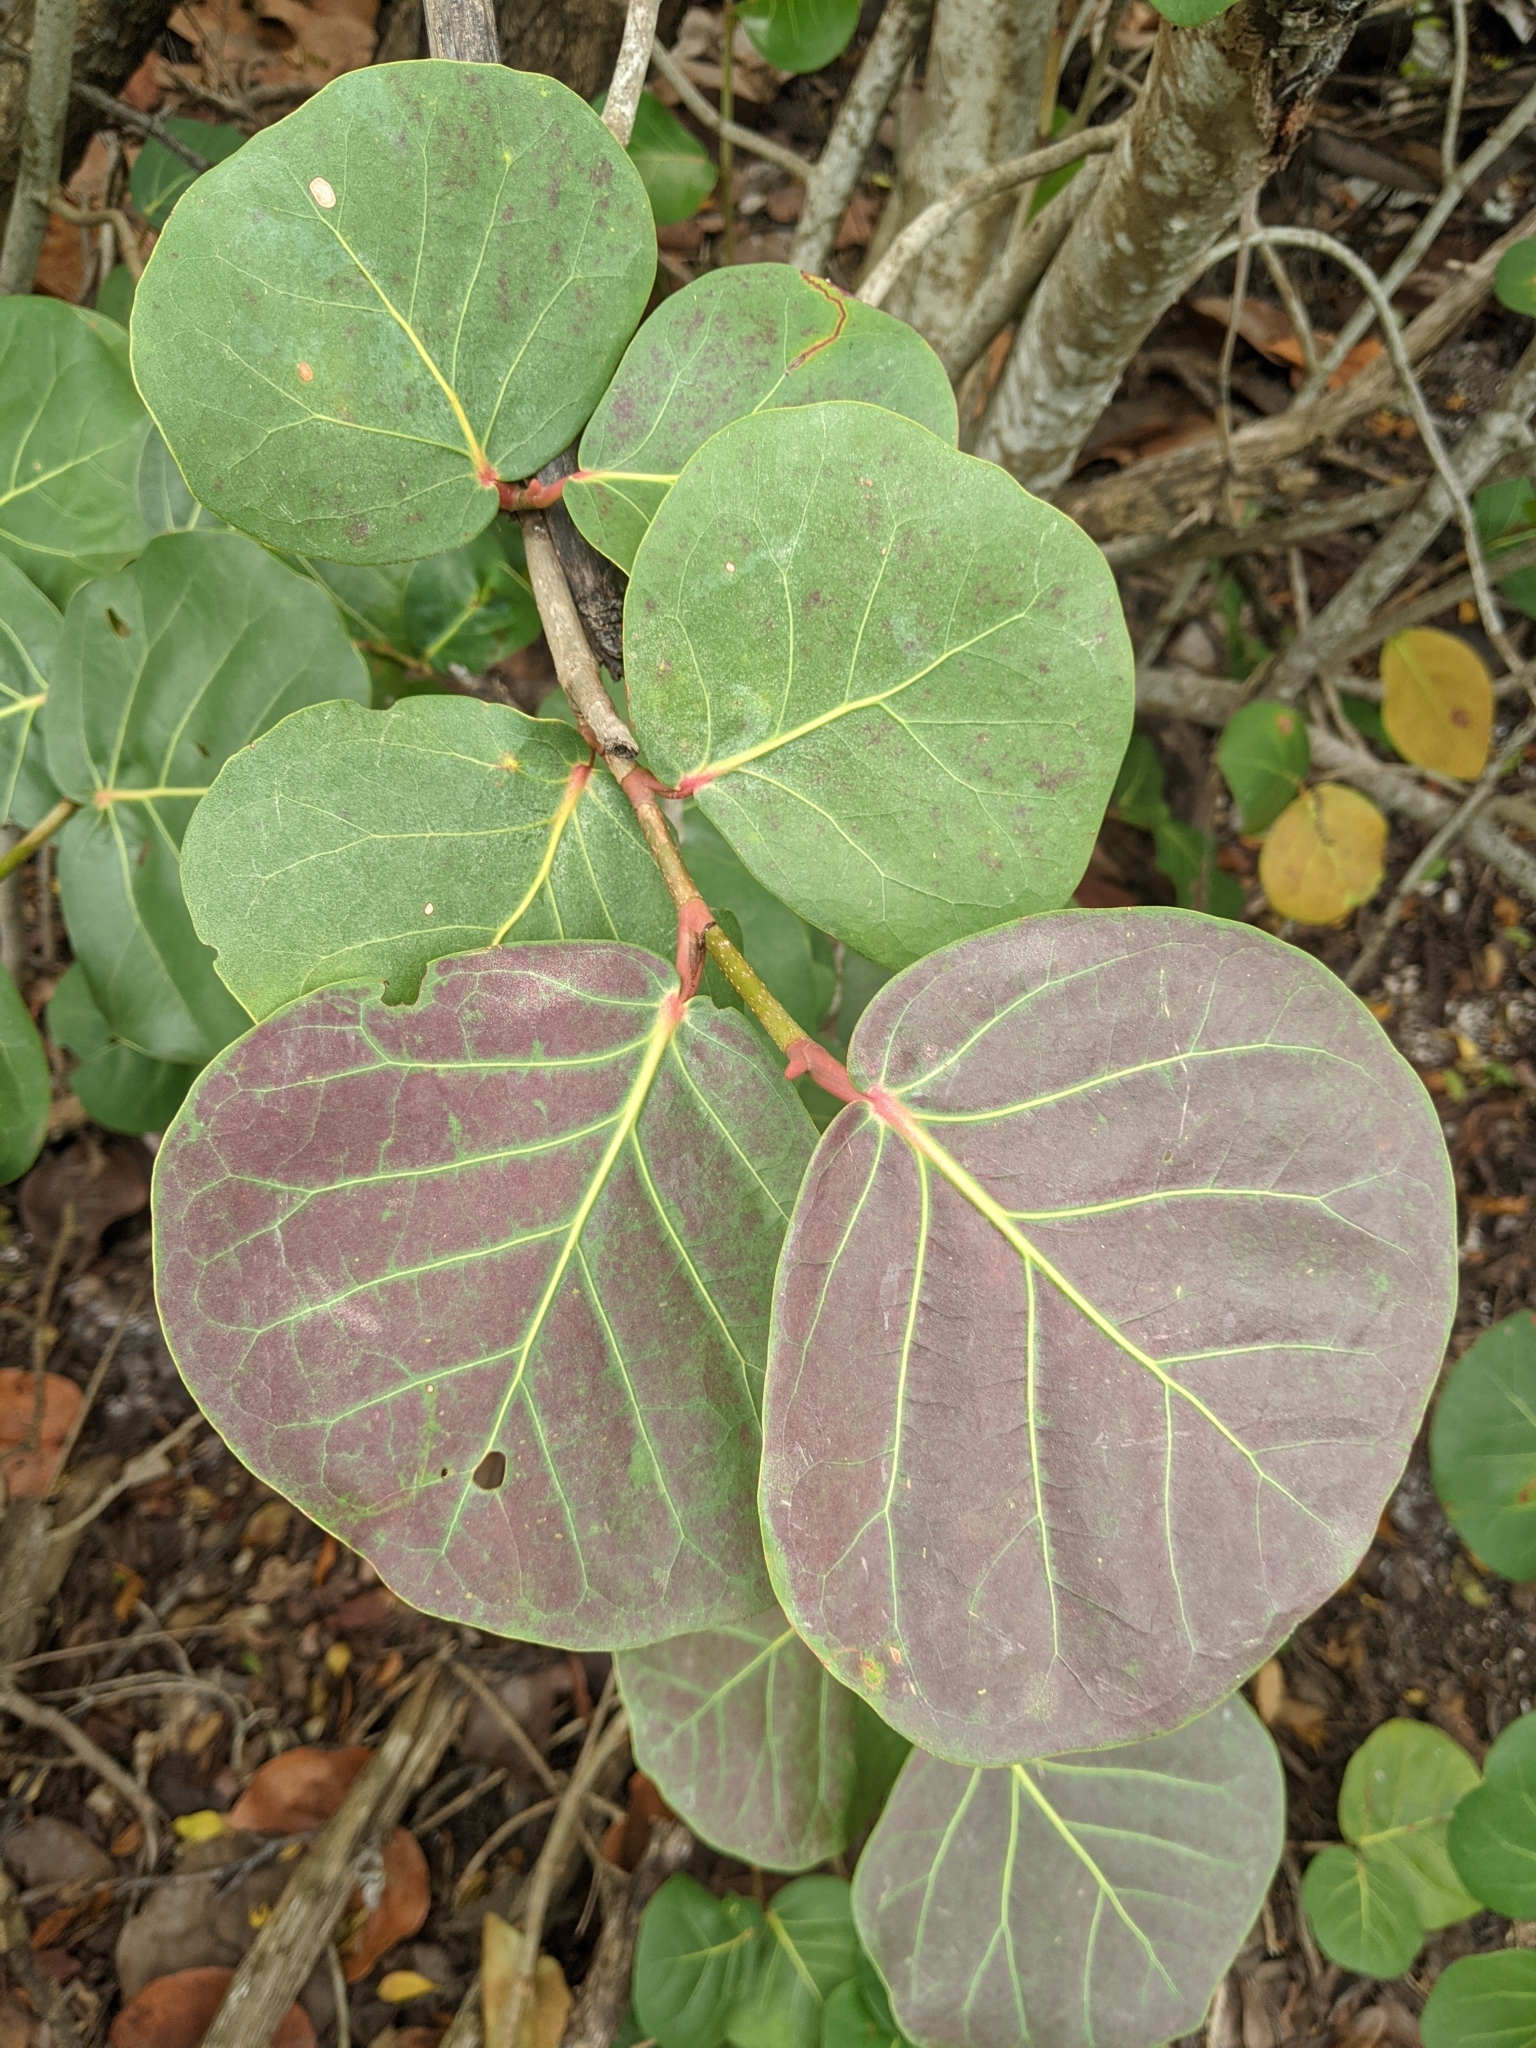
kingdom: Plantae
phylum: Tracheophyta
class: Magnoliopsida
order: Caryophyllales
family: Polygonaceae
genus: Coccoloba
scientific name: Coccoloba uvifera
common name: Seagrape
